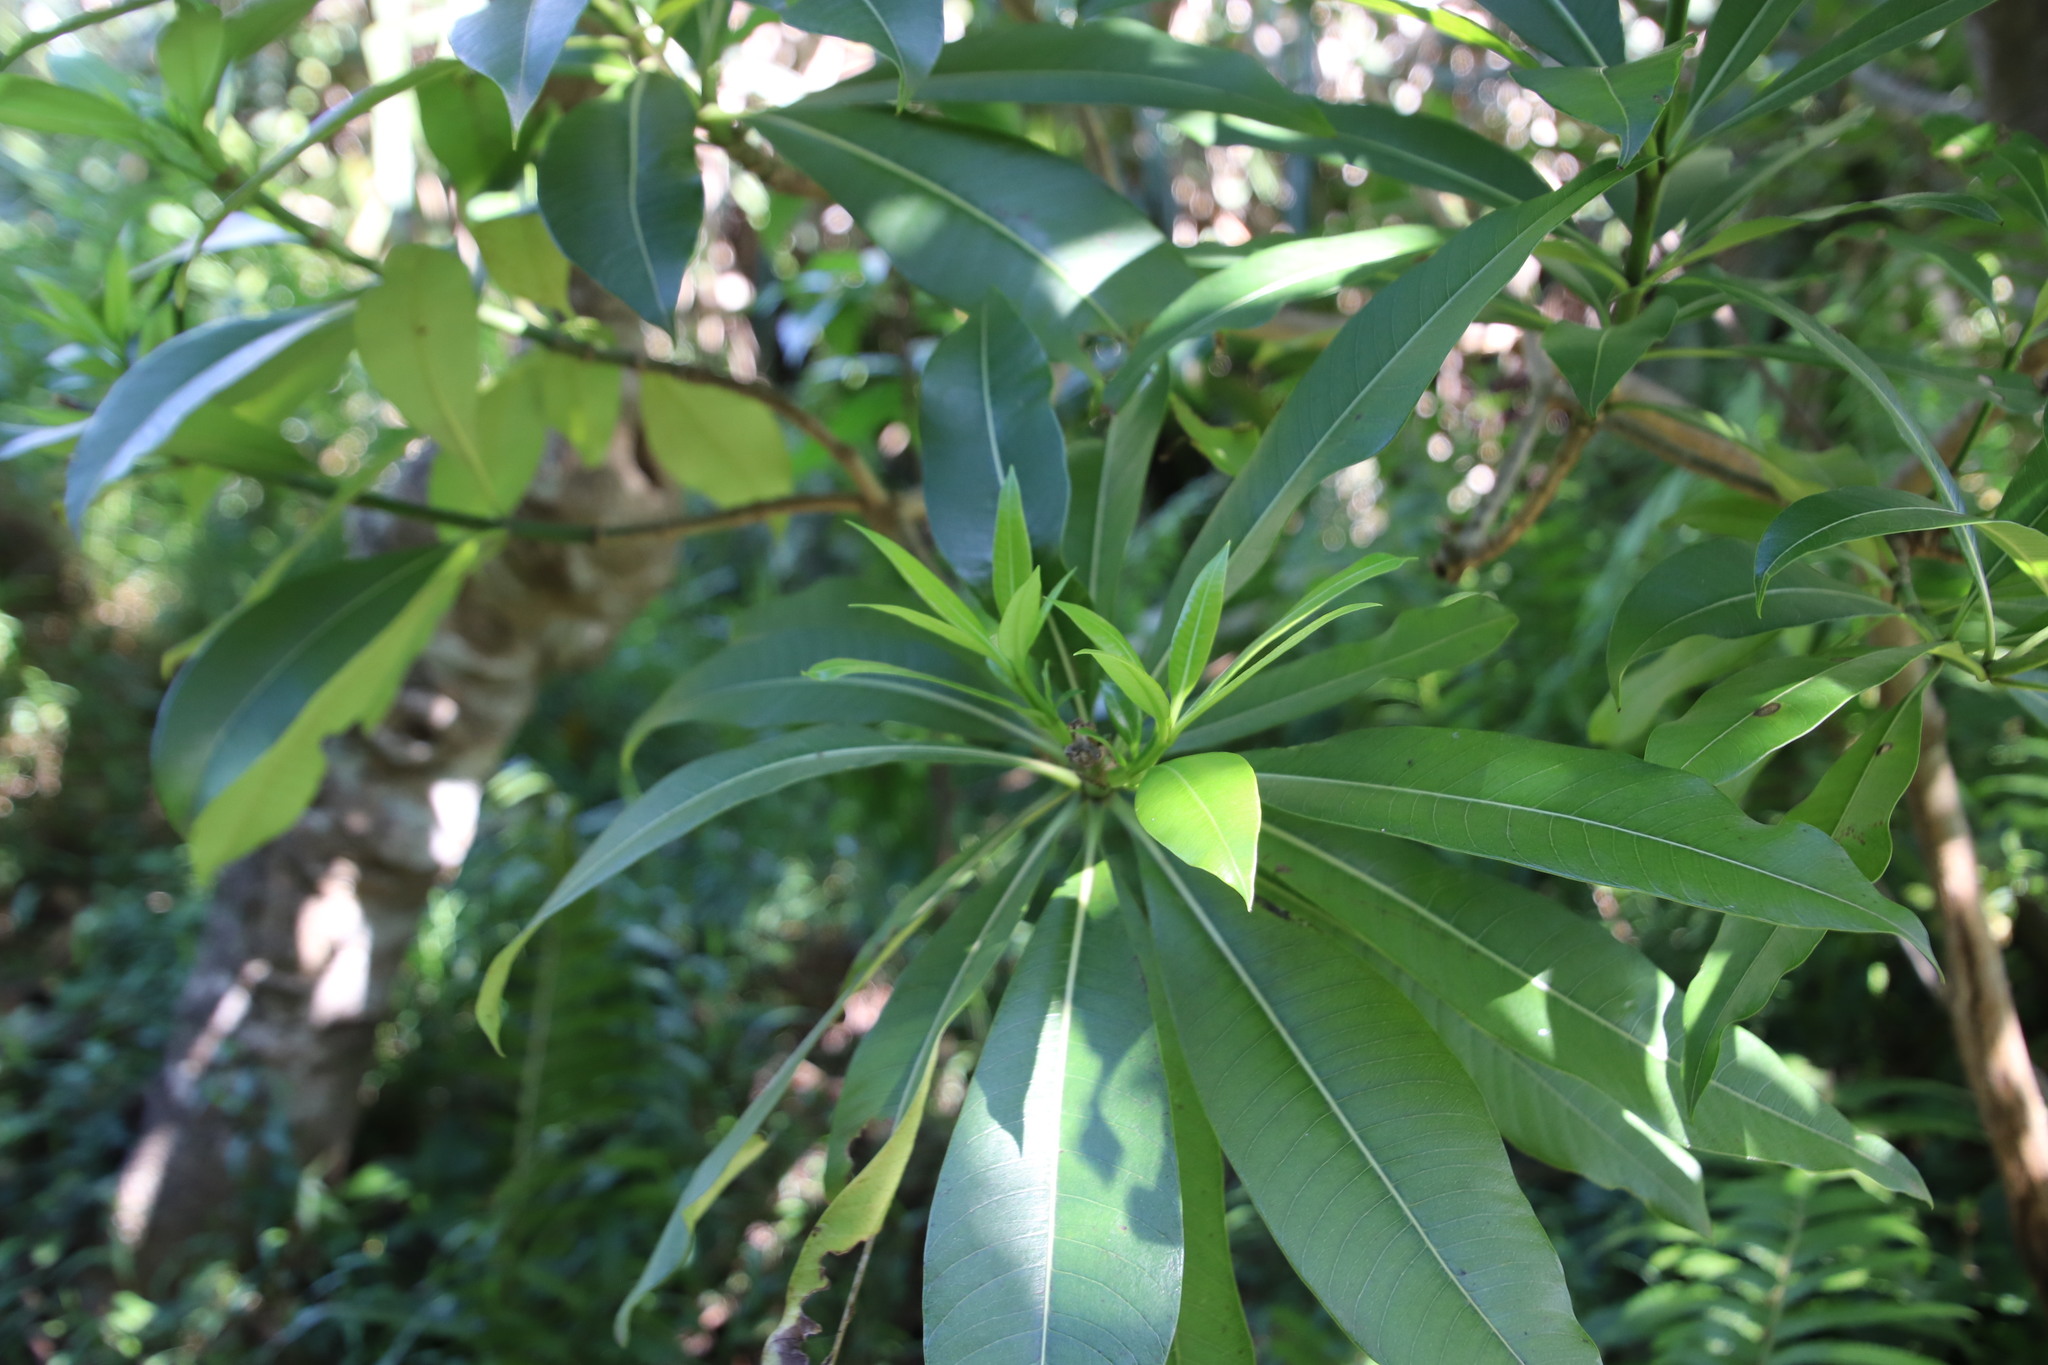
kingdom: Plantae
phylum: Tracheophyta
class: Magnoliopsida
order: Gentianales
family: Apocynaceae
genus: Rauvolfia
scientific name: Rauvolfia caffra
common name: Quininetree
